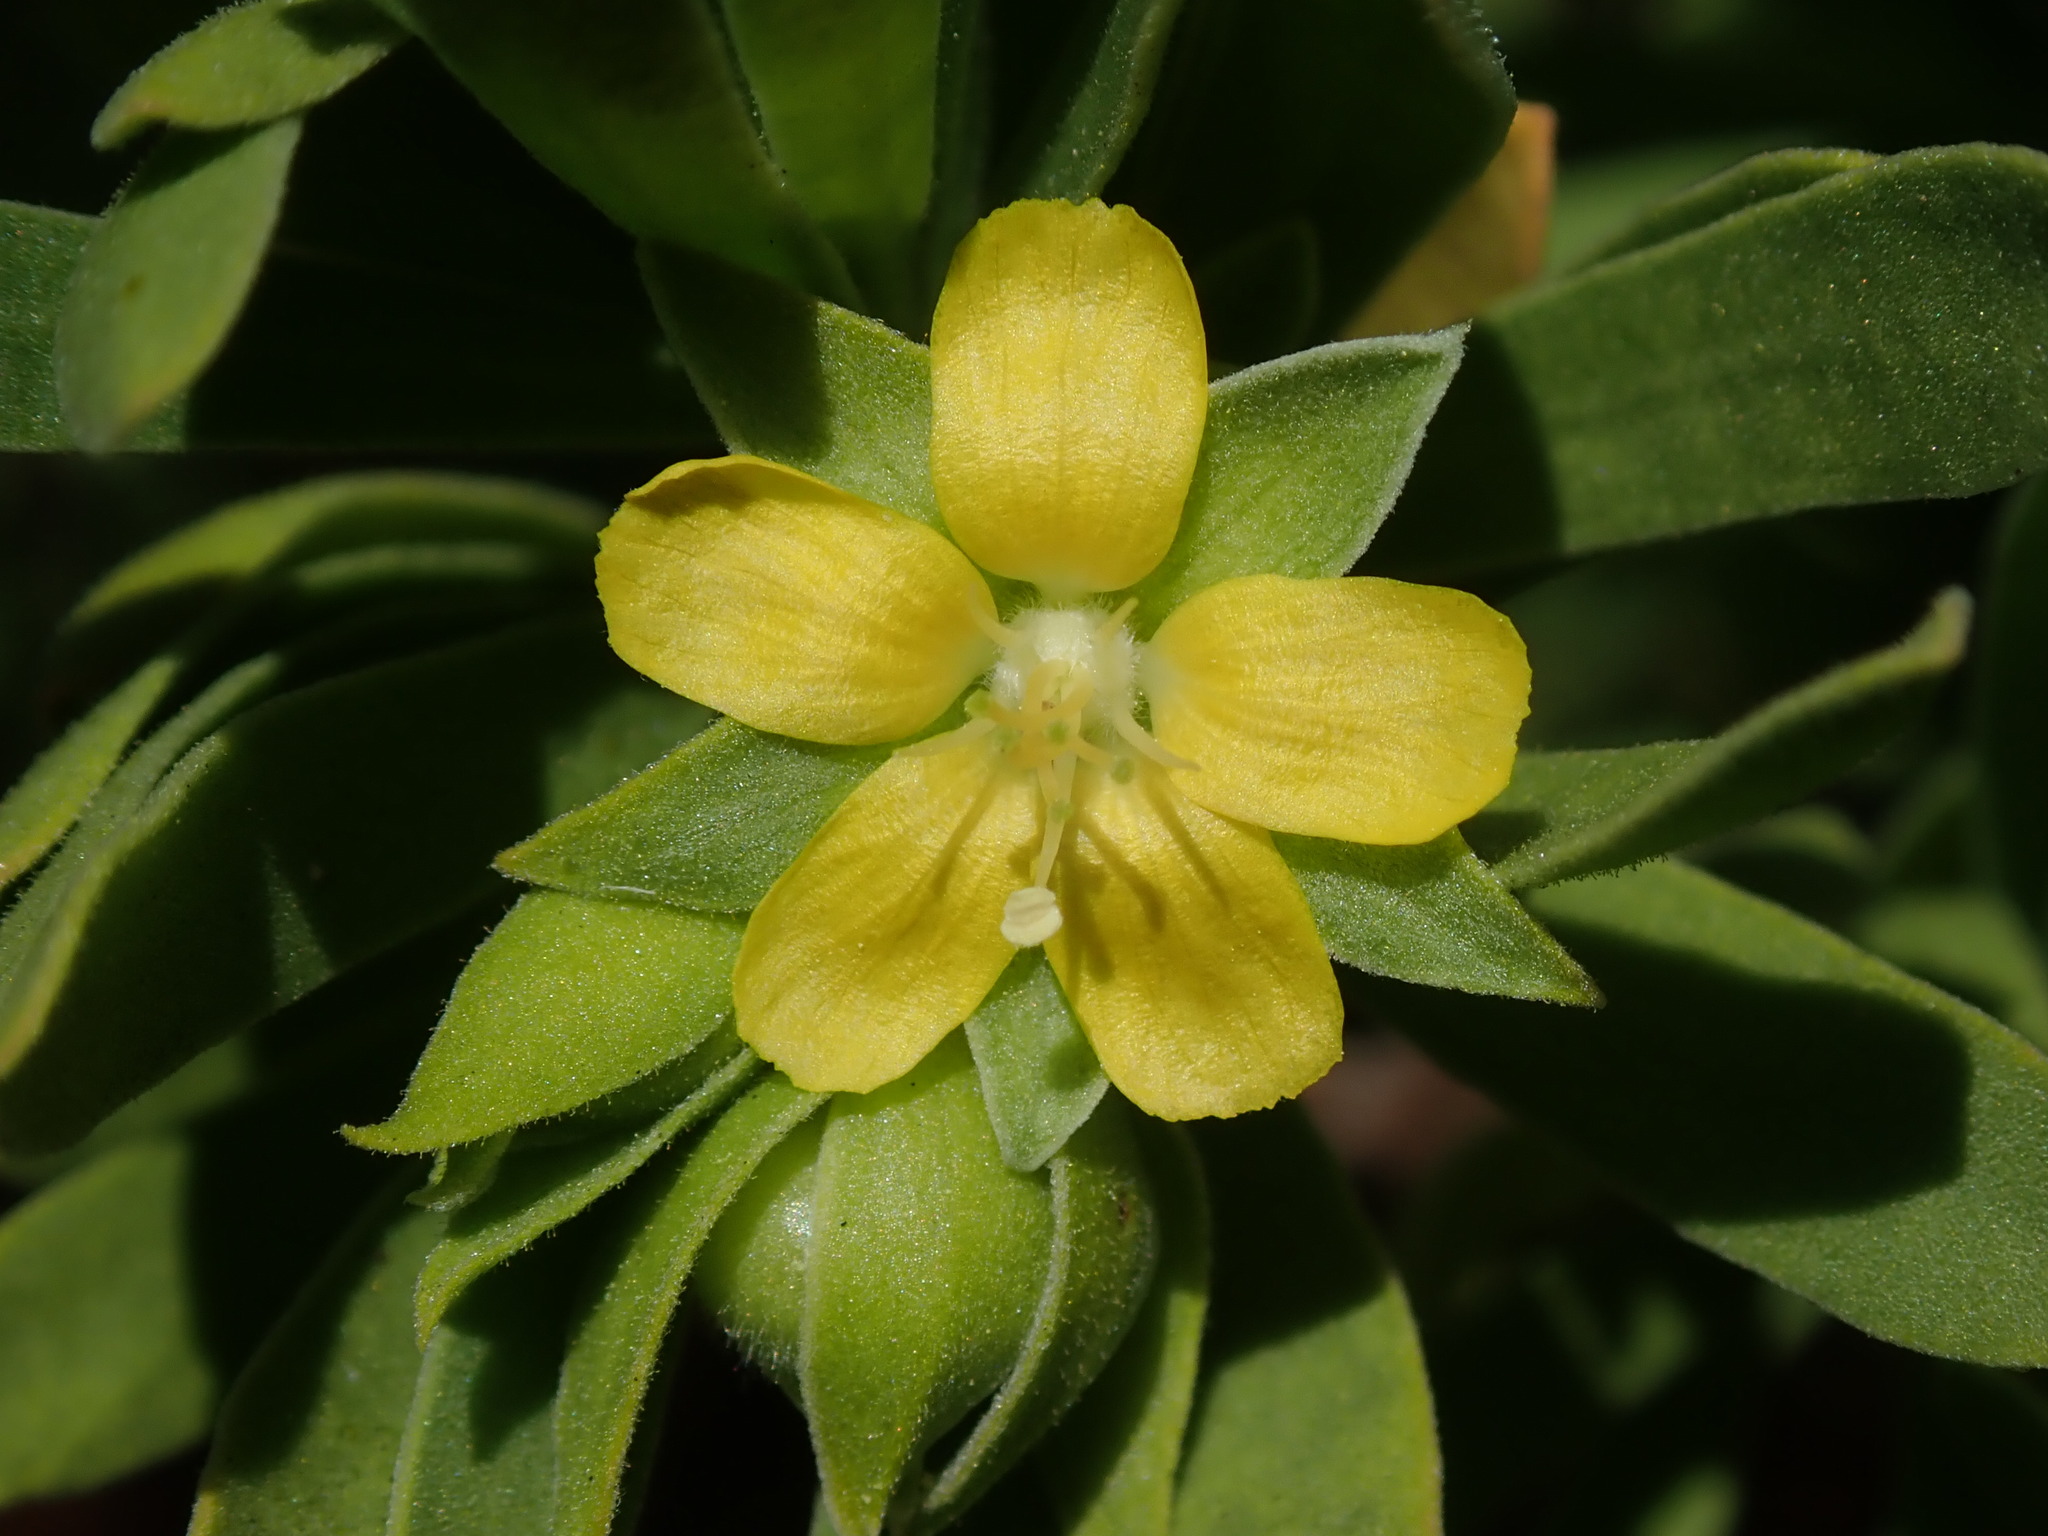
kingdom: Plantae
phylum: Tracheophyta
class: Magnoliopsida
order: Fabales
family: Surianaceae
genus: Suriana
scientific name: Suriana maritima
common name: Bay-cedar
